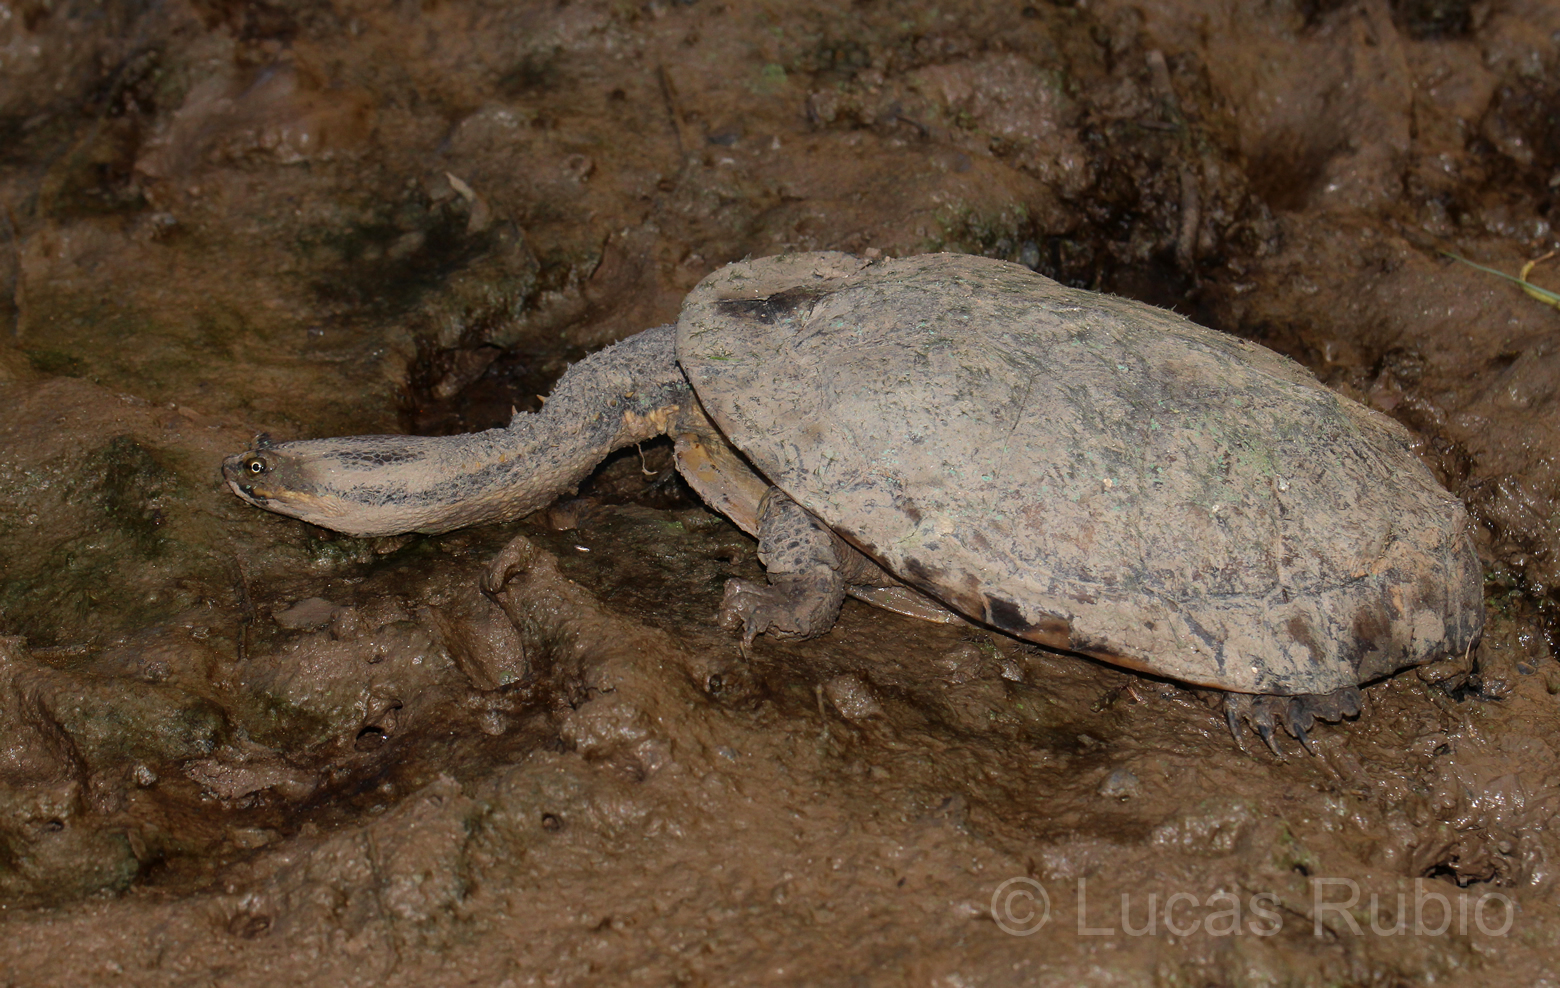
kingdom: Animalia
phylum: Chordata
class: Testudines
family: Chelidae
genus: Hydromedusa
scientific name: Hydromedusa tectifera
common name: Argentine snake-necked turtle
